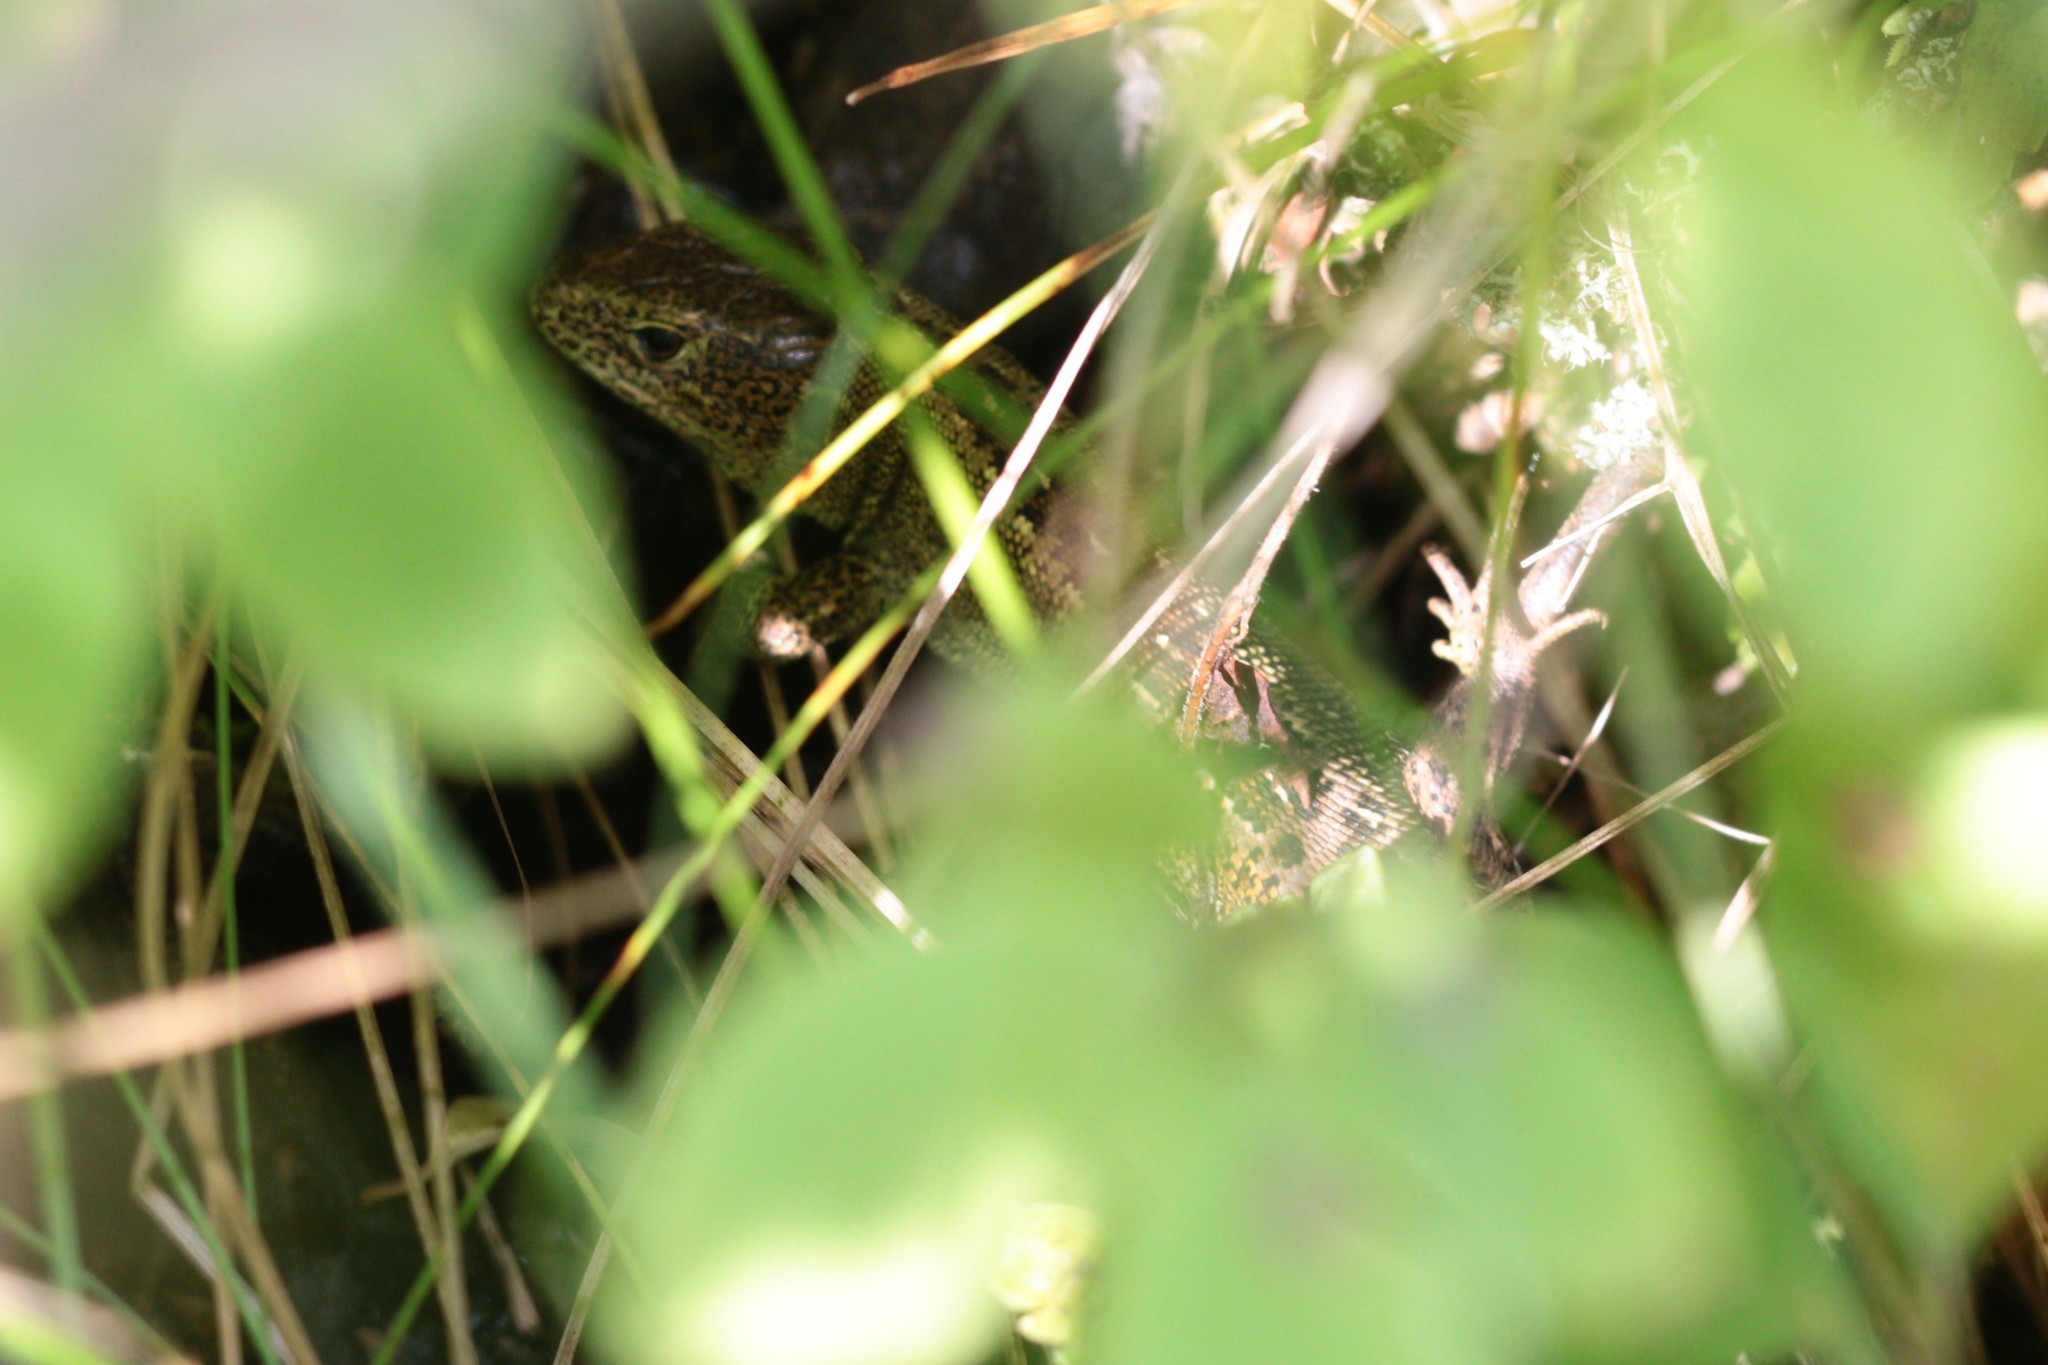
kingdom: Animalia
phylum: Chordata
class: Squamata
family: Lacertidae
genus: Lacerta
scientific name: Lacerta agilis
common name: Sand lizard
